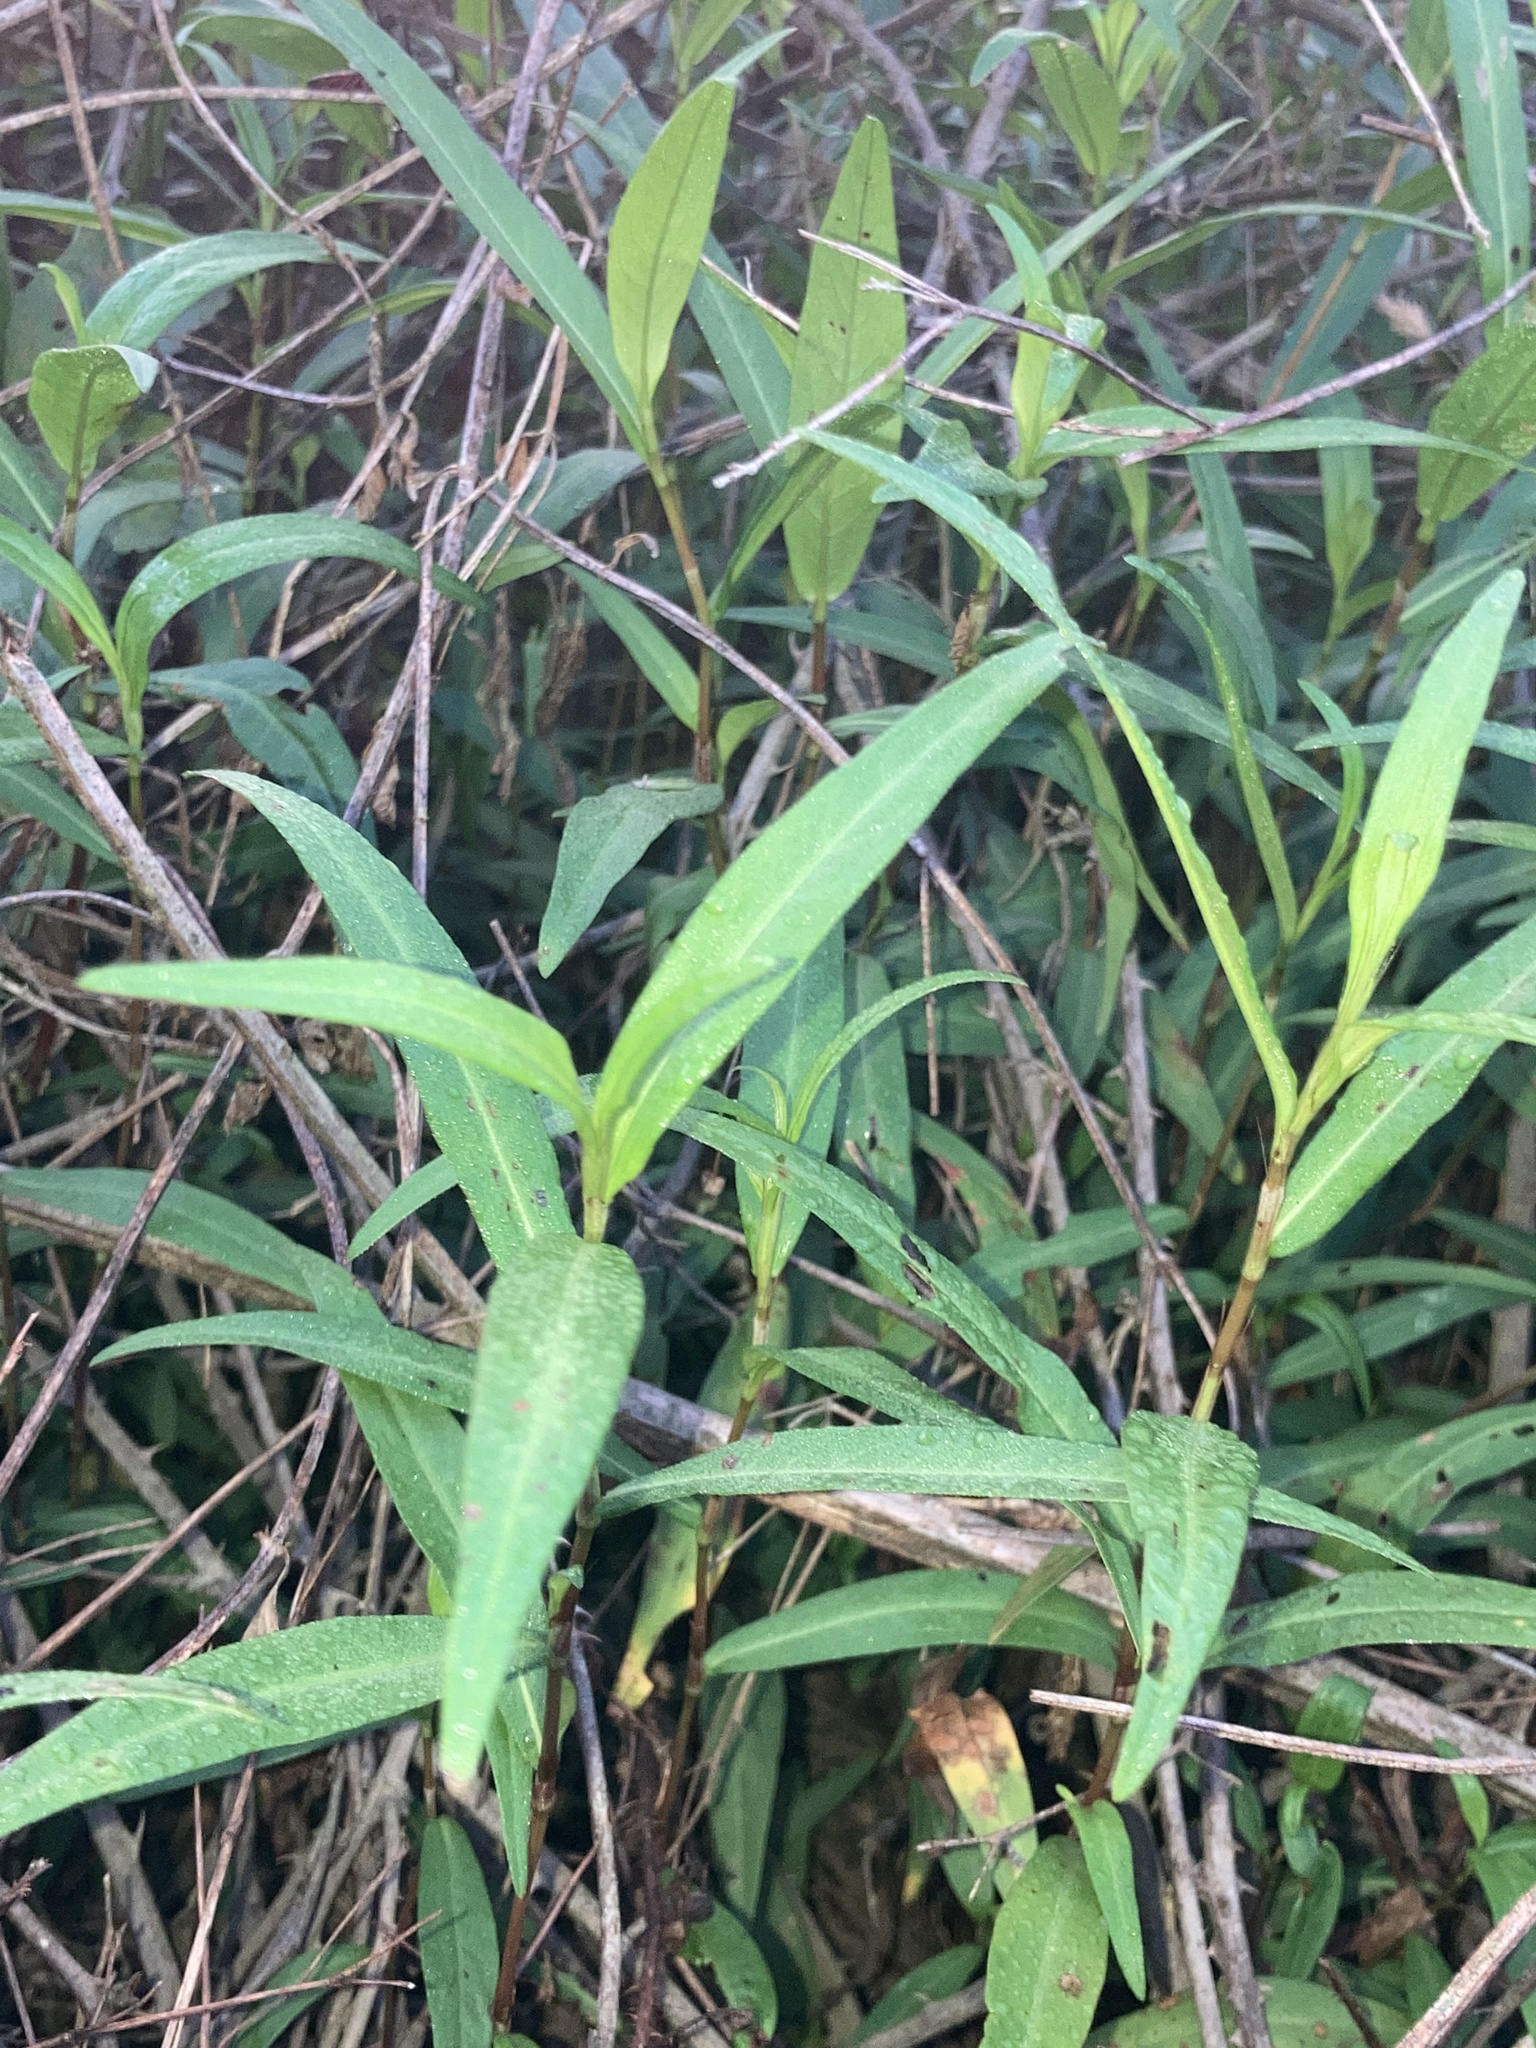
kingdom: Plantae
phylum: Tracheophyta
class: Magnoliopsida
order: Caryophyllales
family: Polygonaceae
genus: Persicaria
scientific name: Persicaria hydropiperoides
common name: Swamp smartweed
